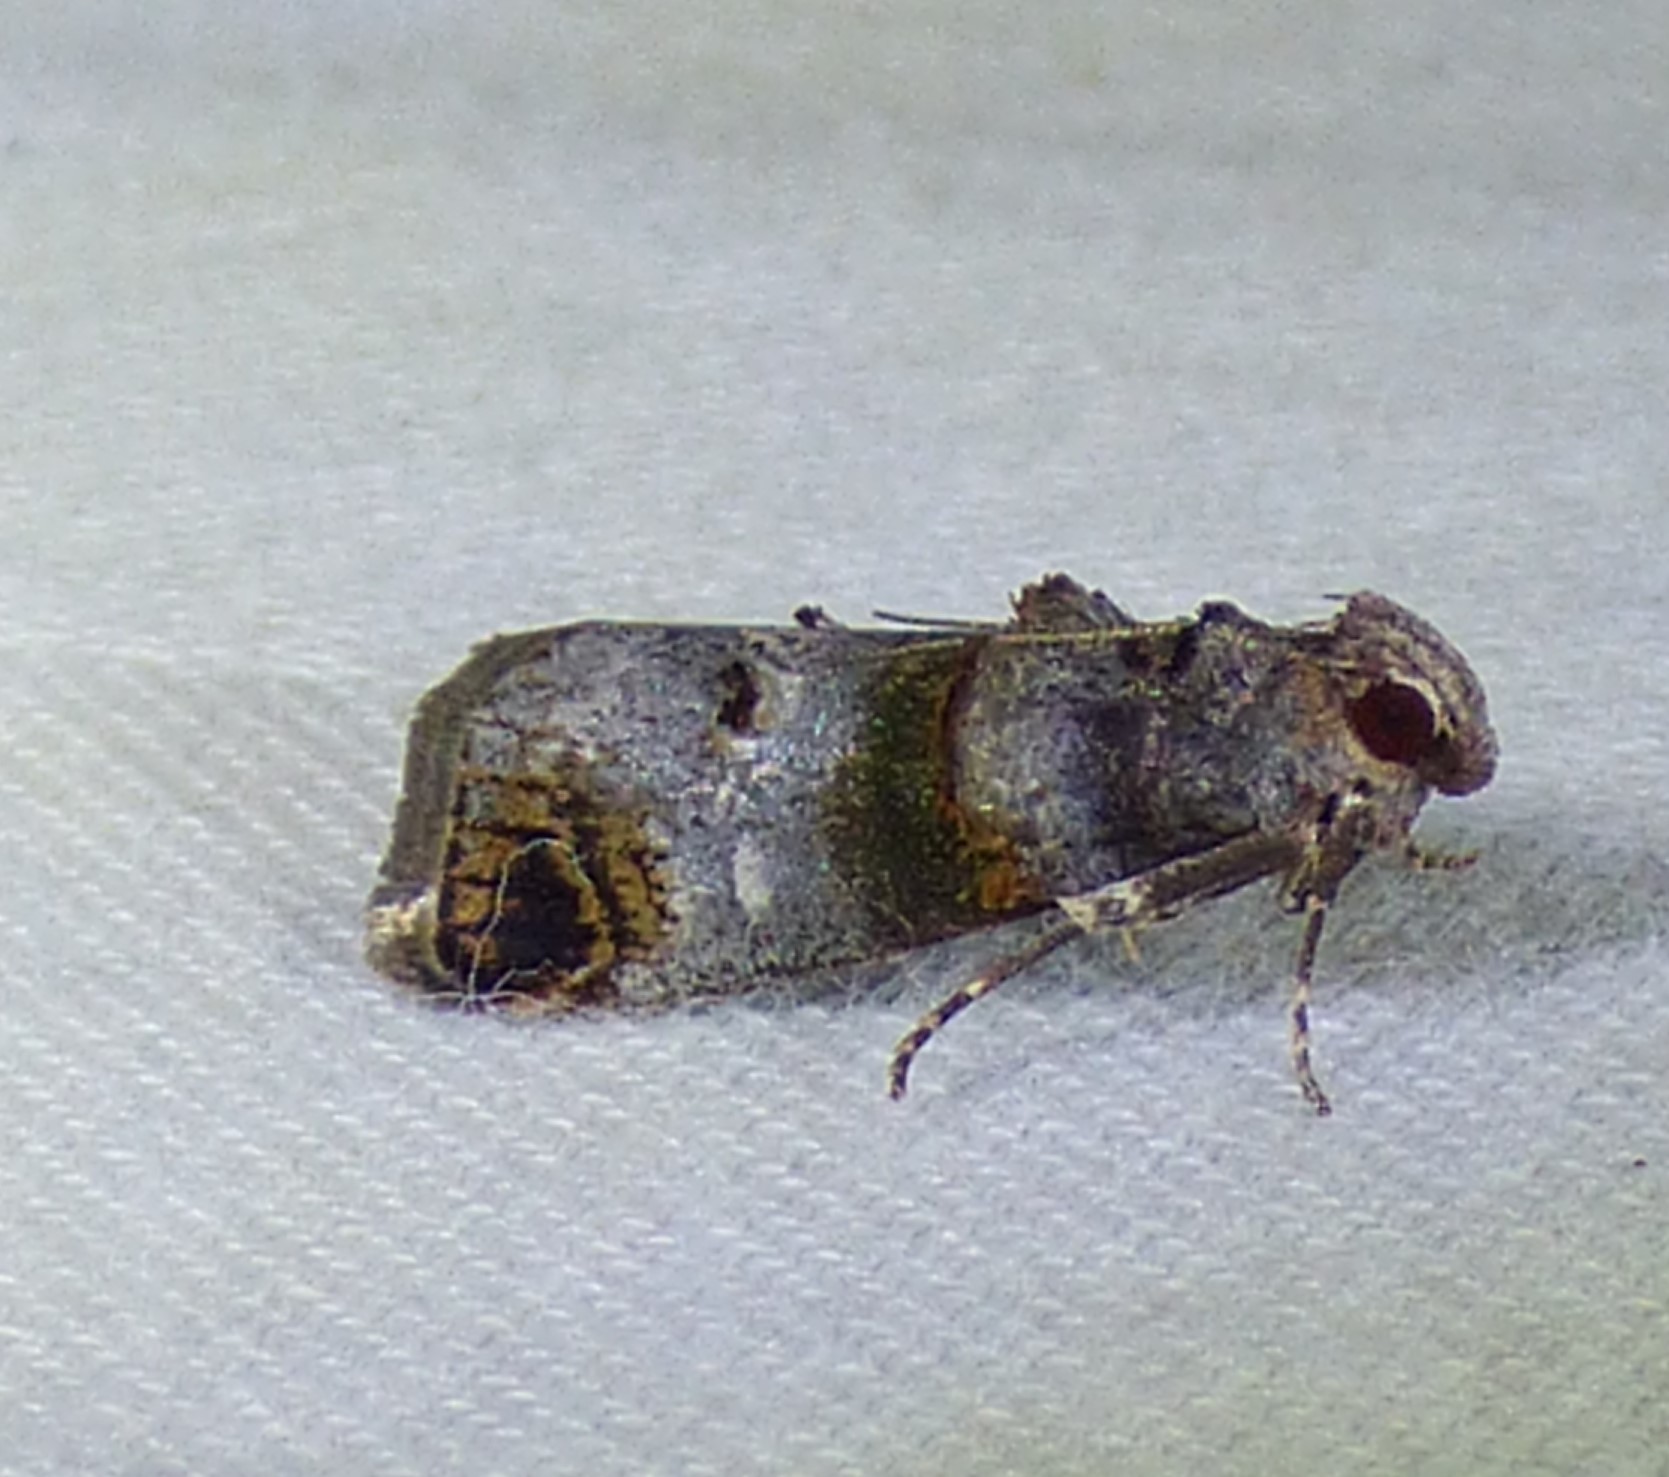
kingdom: Animalia
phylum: Arthropoda
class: Insecta
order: Lepidoptera
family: Pyralidae
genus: Oneida
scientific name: Oneida lunulalis
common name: Orange-tufted oneida moth
